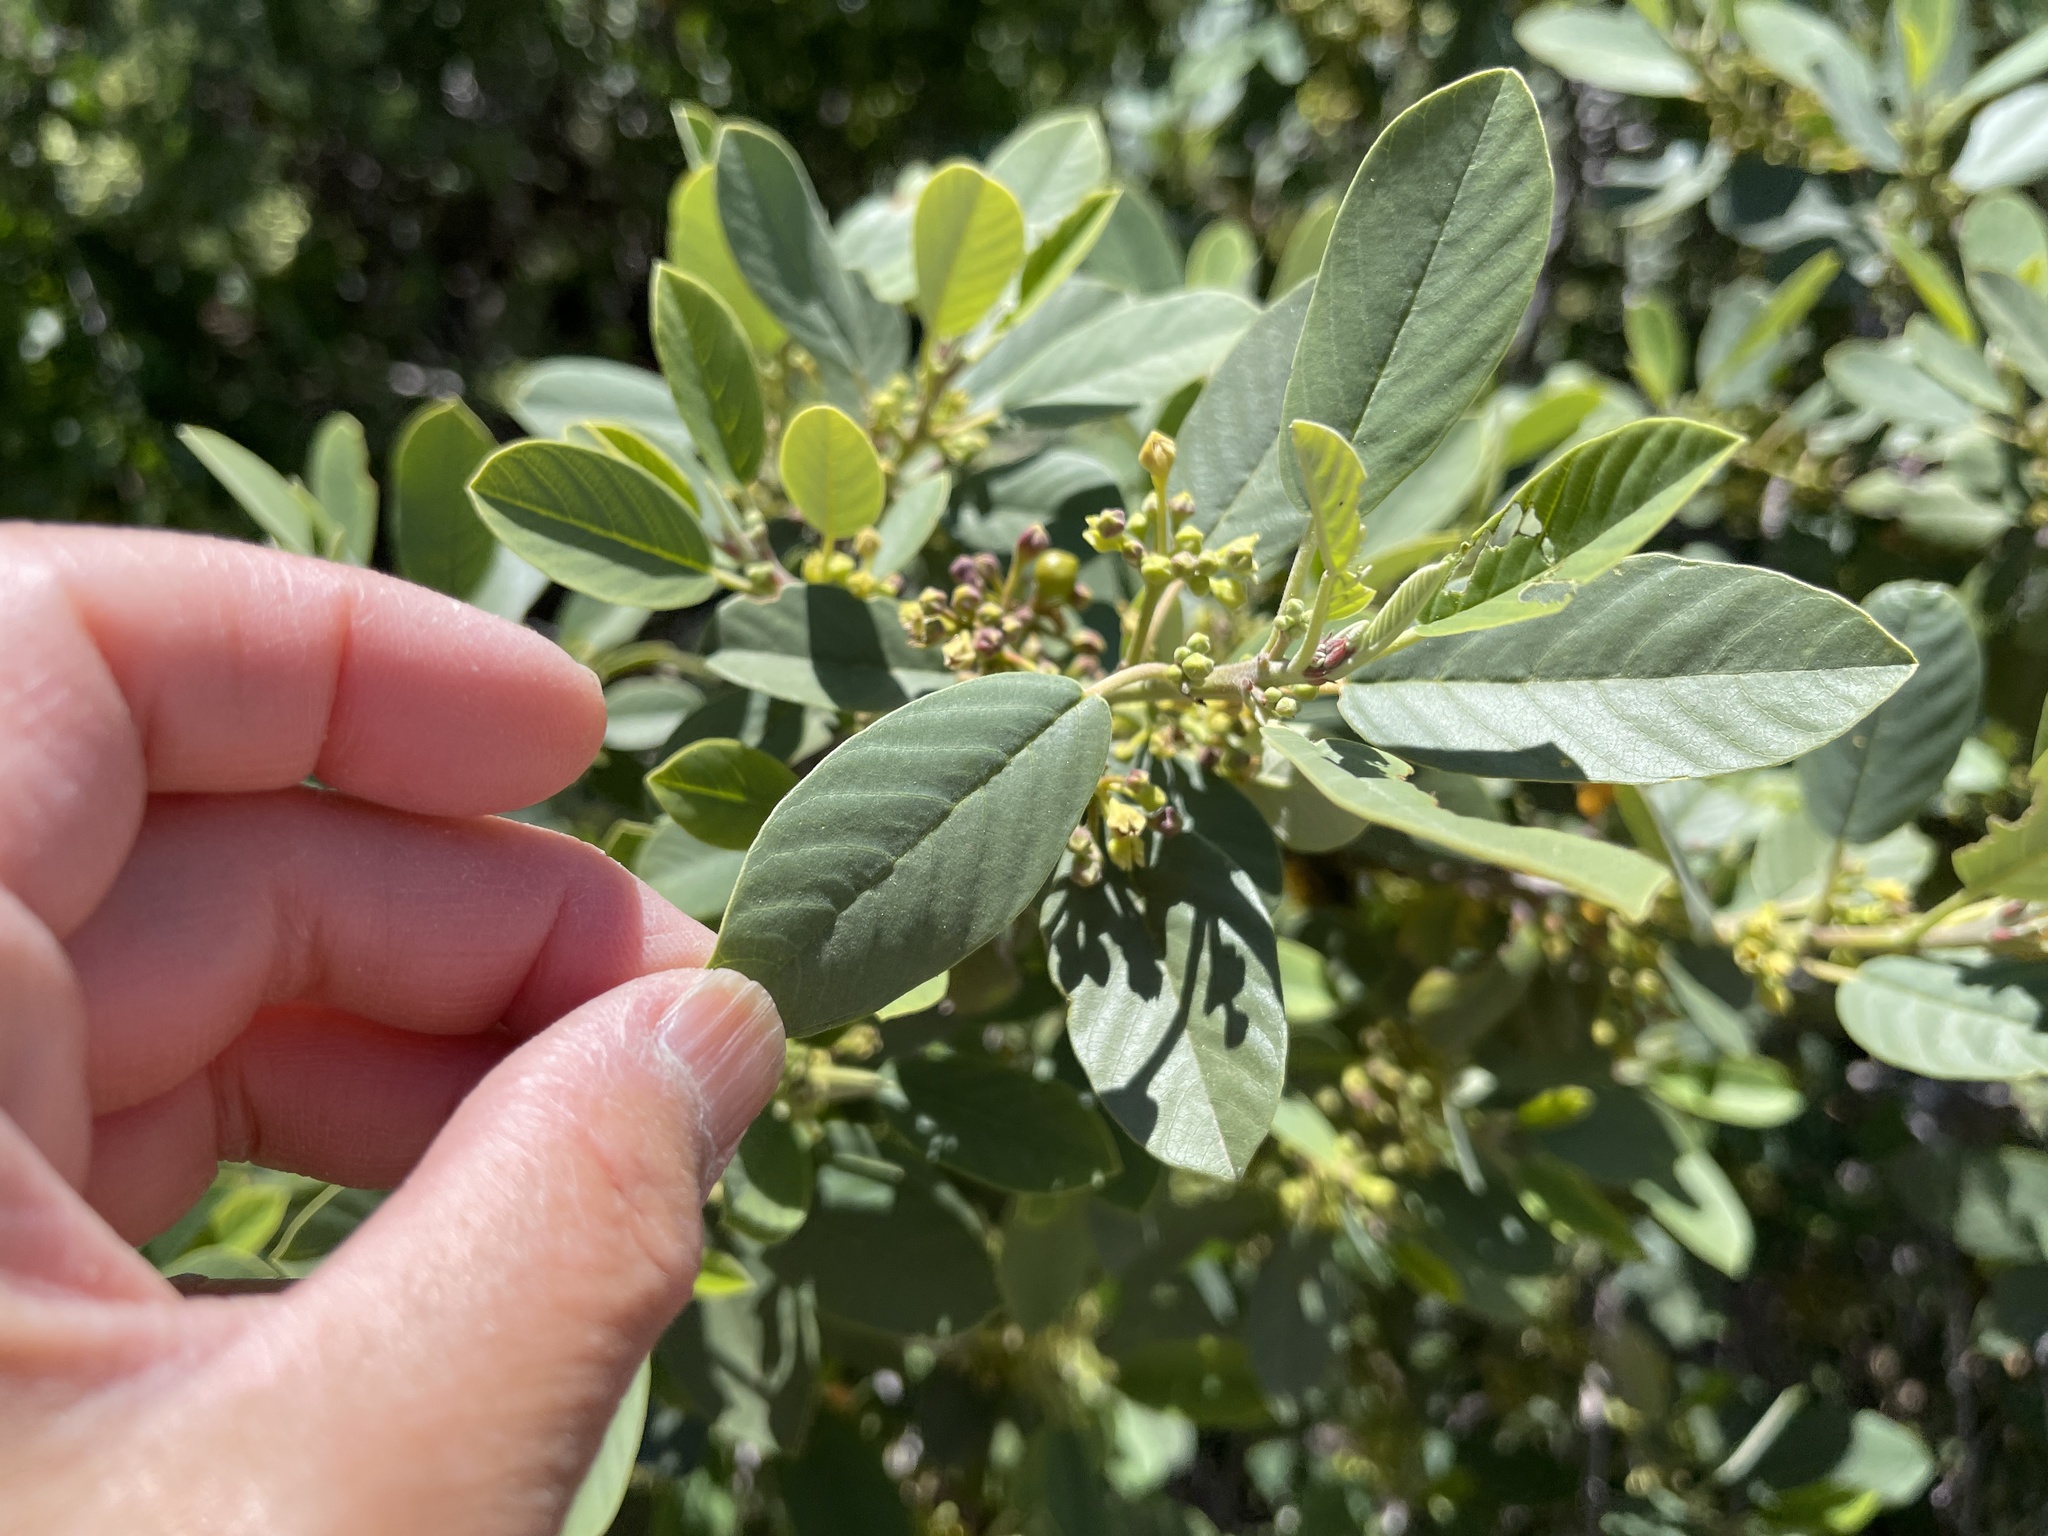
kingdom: Plantae
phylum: Tracheophyta
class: Magnoliopsida
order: Rosales
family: Rhamnaceae
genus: Frangula
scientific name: Frangula californica
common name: California buckthorn
